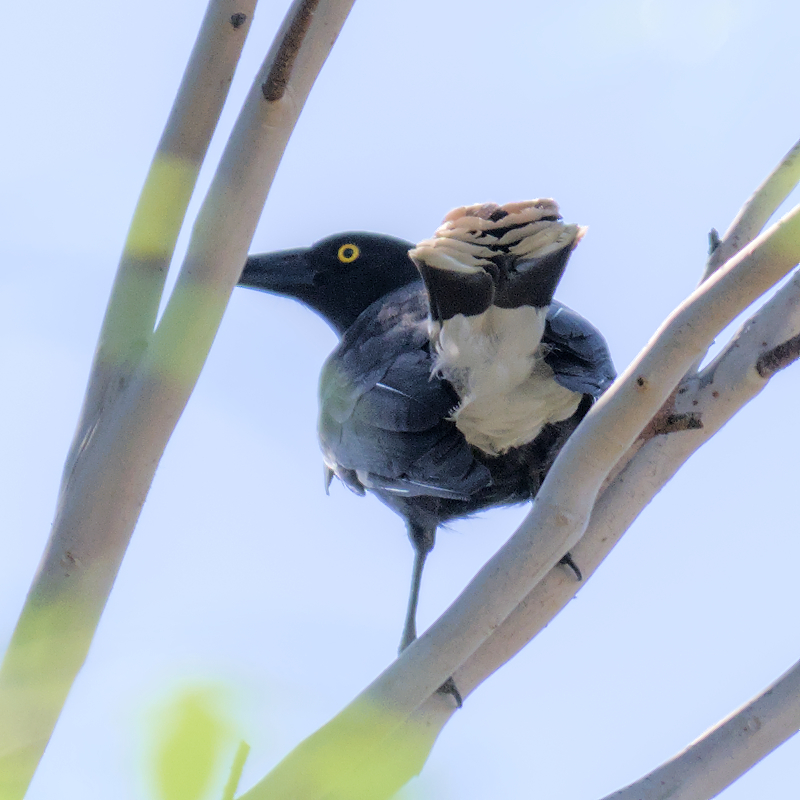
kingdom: Animalia
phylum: Chordata
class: Aves
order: Passeriformes
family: Cracticidae
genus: Strepera
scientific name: Strepera graculina
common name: Pied currawong
